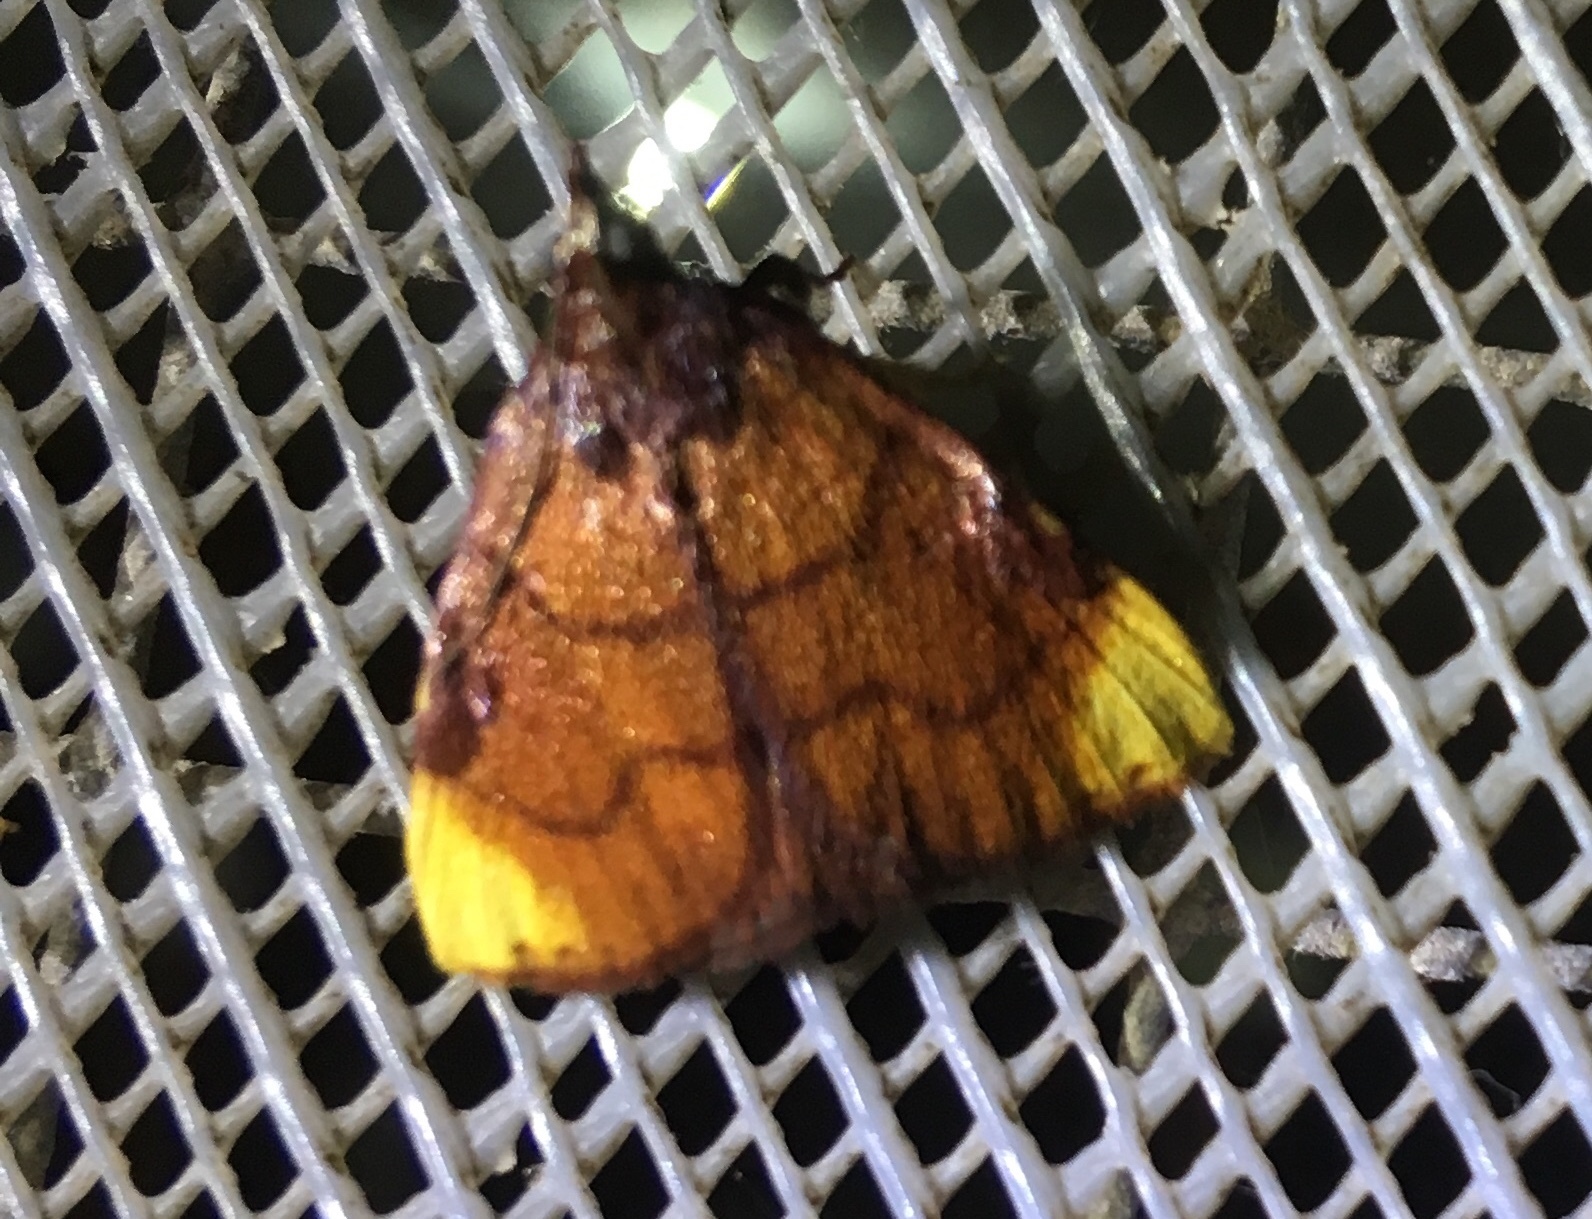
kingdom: Animalia
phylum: Arthropoda
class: Insecta
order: Lepidoptera
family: Pyralidae
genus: Paramacna
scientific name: Paramacna nattereri
